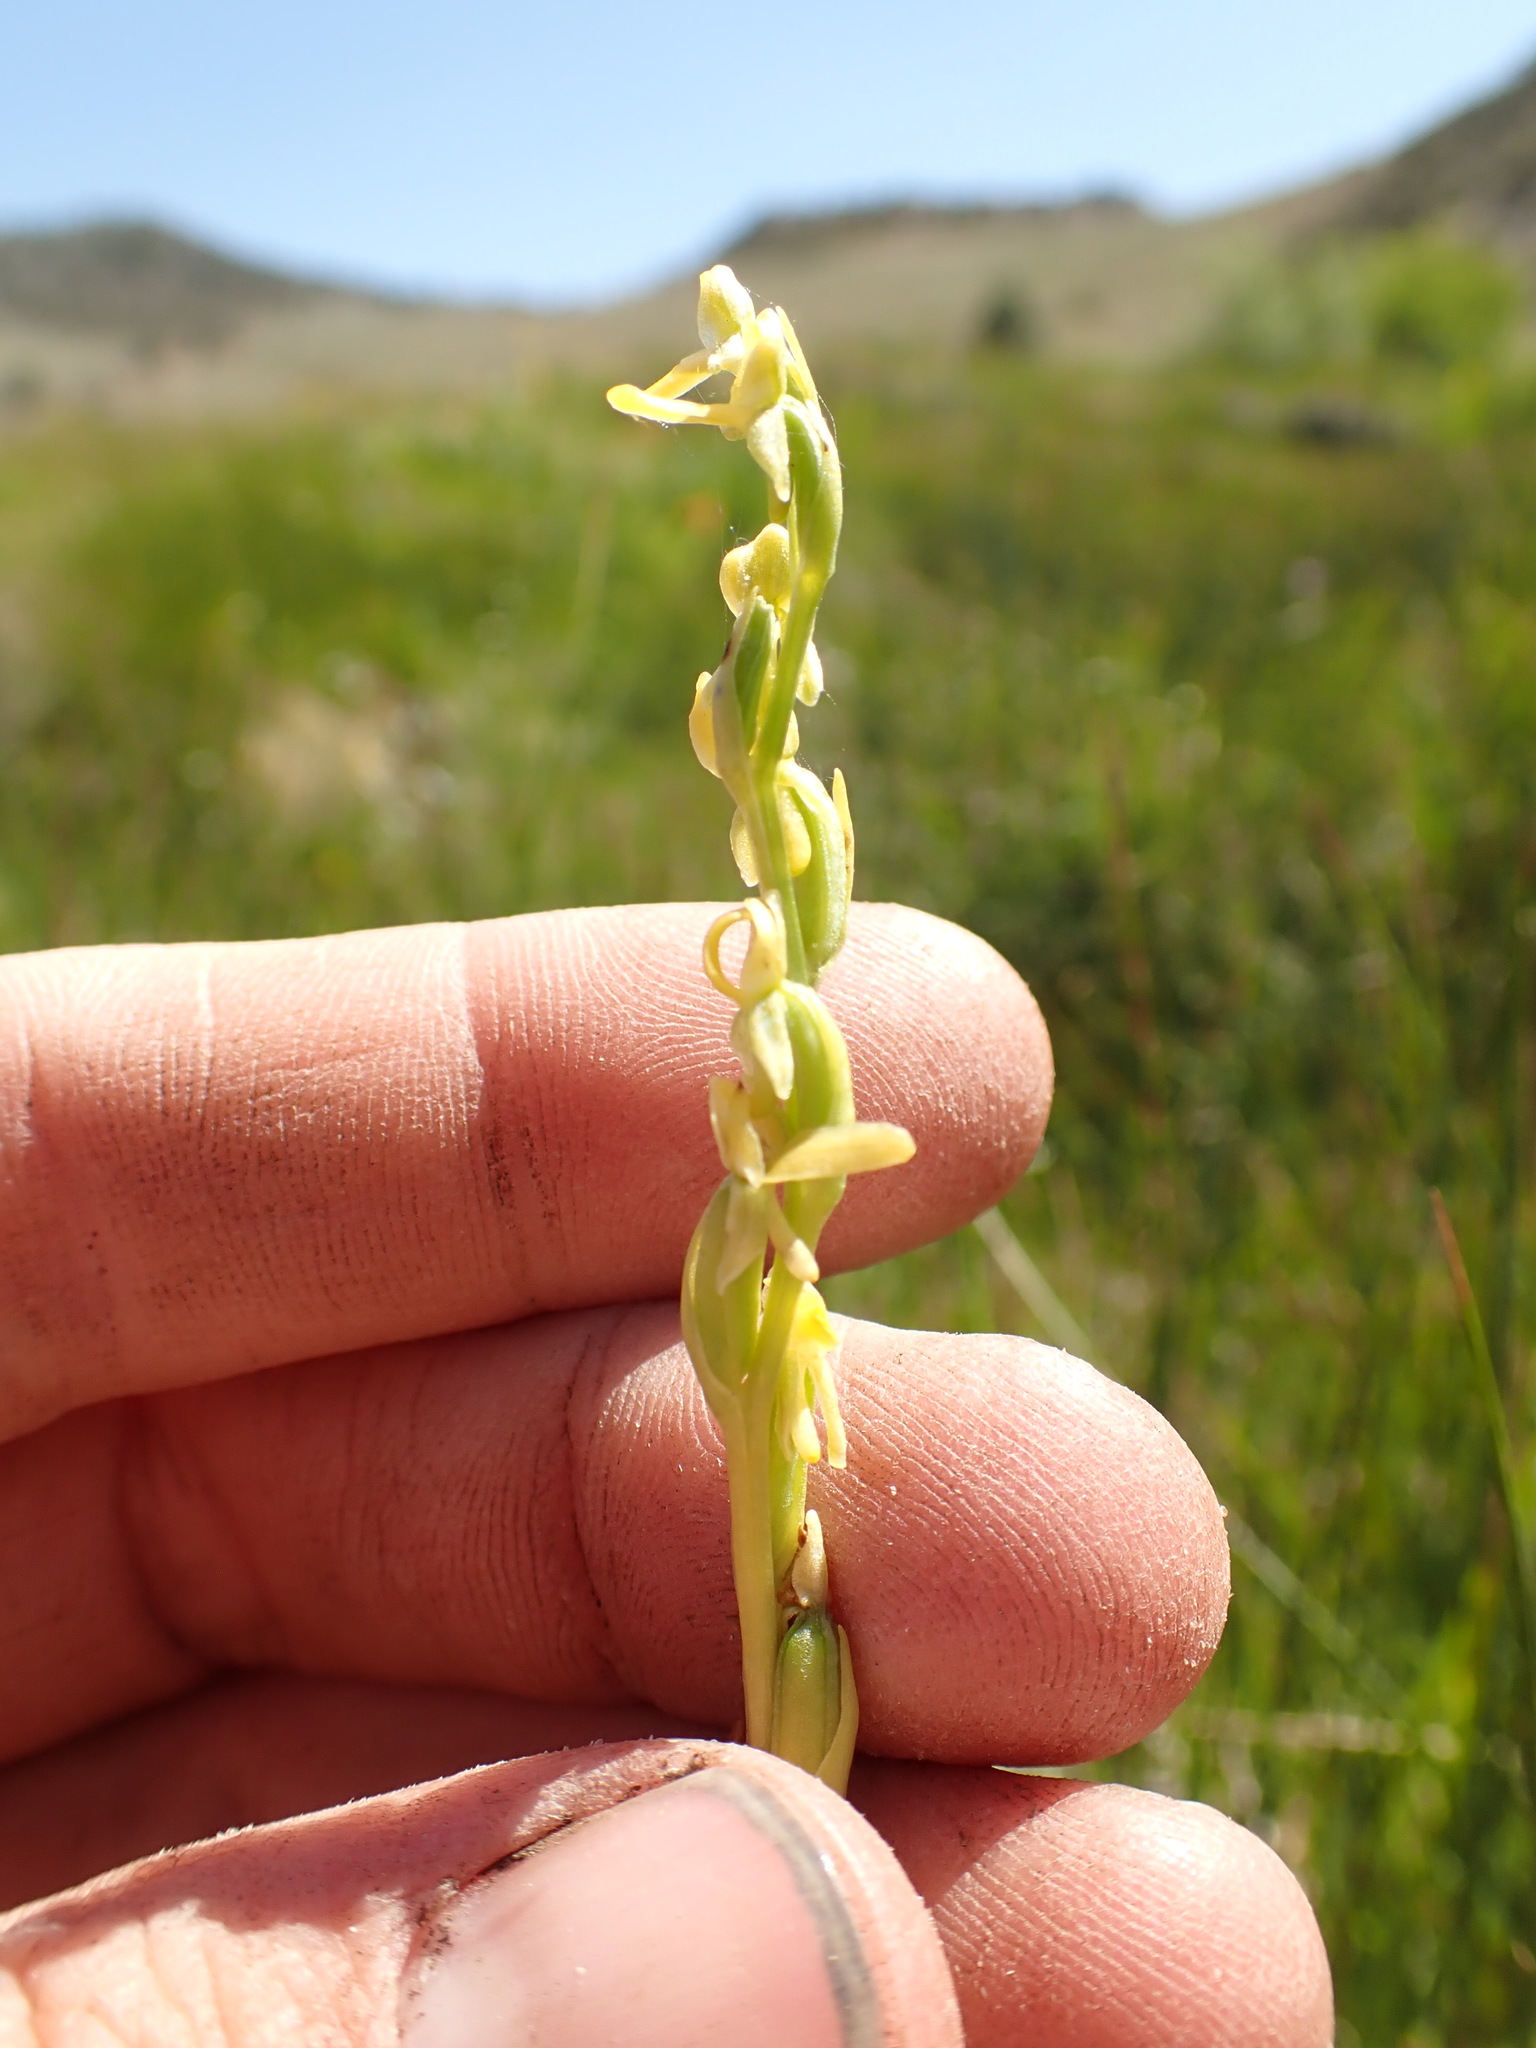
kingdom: Plantae
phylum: Tracheophyta
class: Liliopsida
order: Asparagales
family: Orchidaceae
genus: Platanthera
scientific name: Platanthera tescamnis
